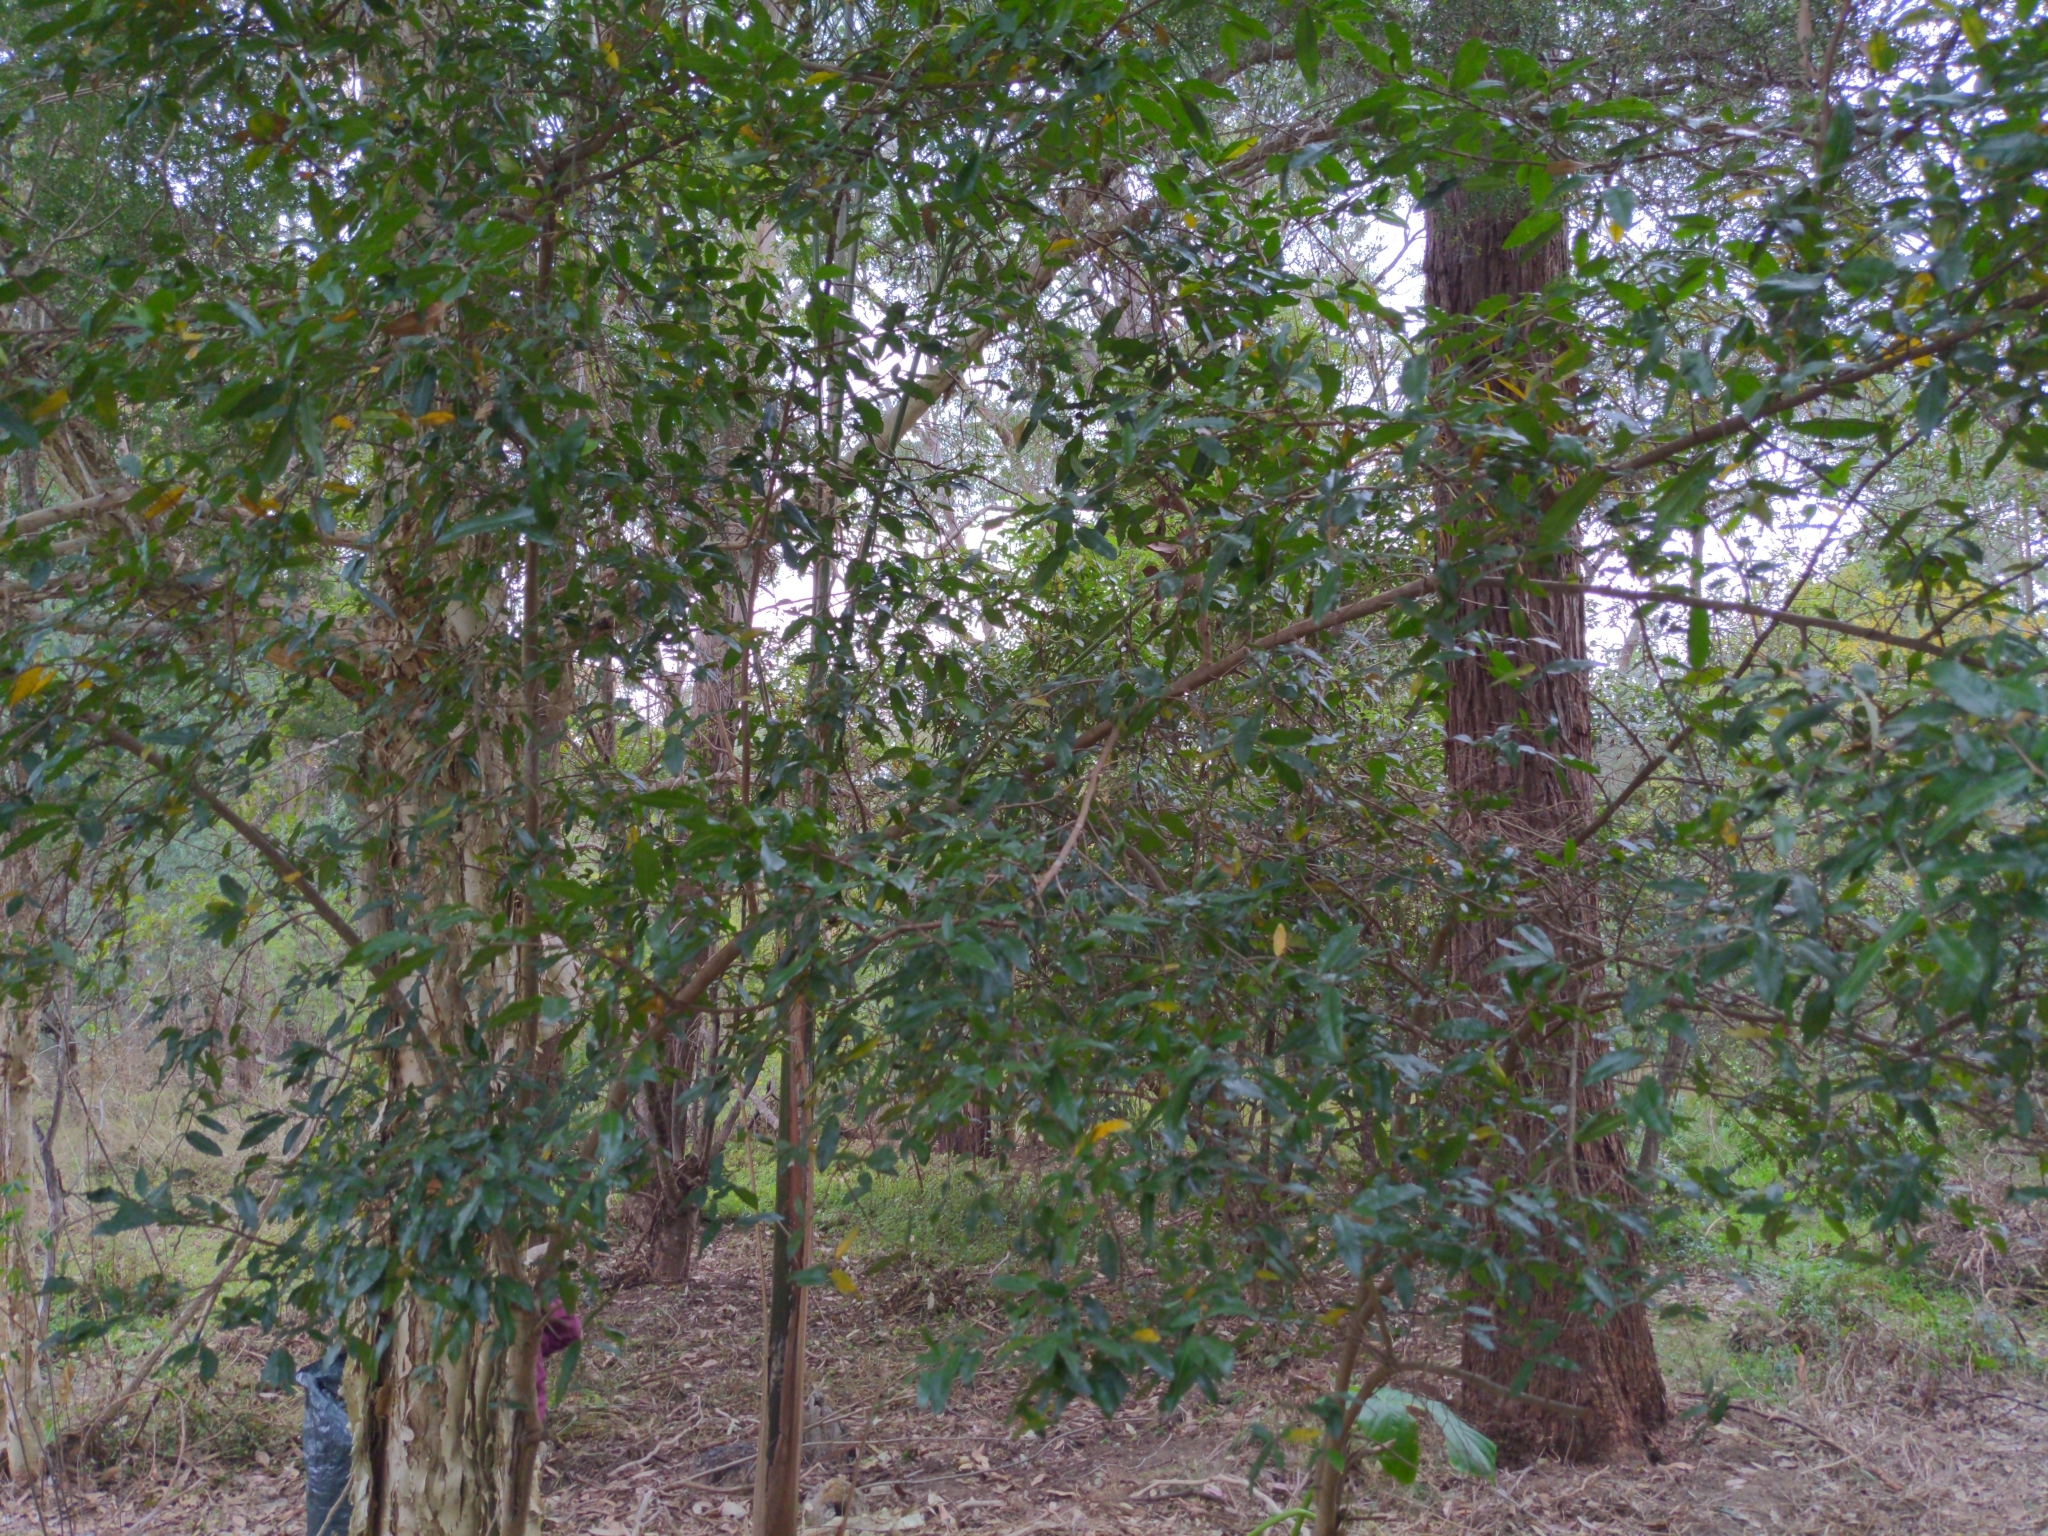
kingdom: Plantae
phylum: Tracheophyta
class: Magnoliopsida
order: Malpighiales
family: Ochnaceae
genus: Ochna
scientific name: Ochna serrulata
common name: Mickey mouse plant
